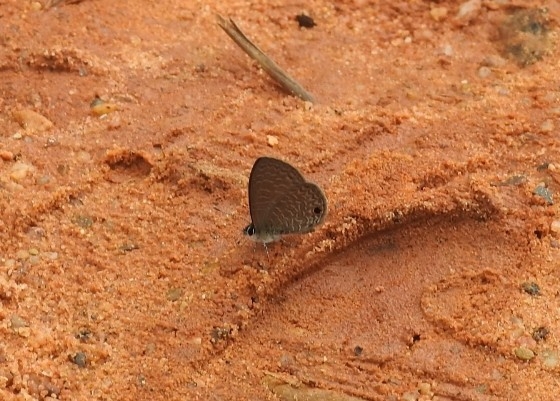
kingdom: Animalia
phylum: Arthropoda
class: Insecta
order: Lepidoptera
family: Lycaenidae
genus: Prosotas
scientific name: Prosotas dubiosa
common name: Tailless lineblue
